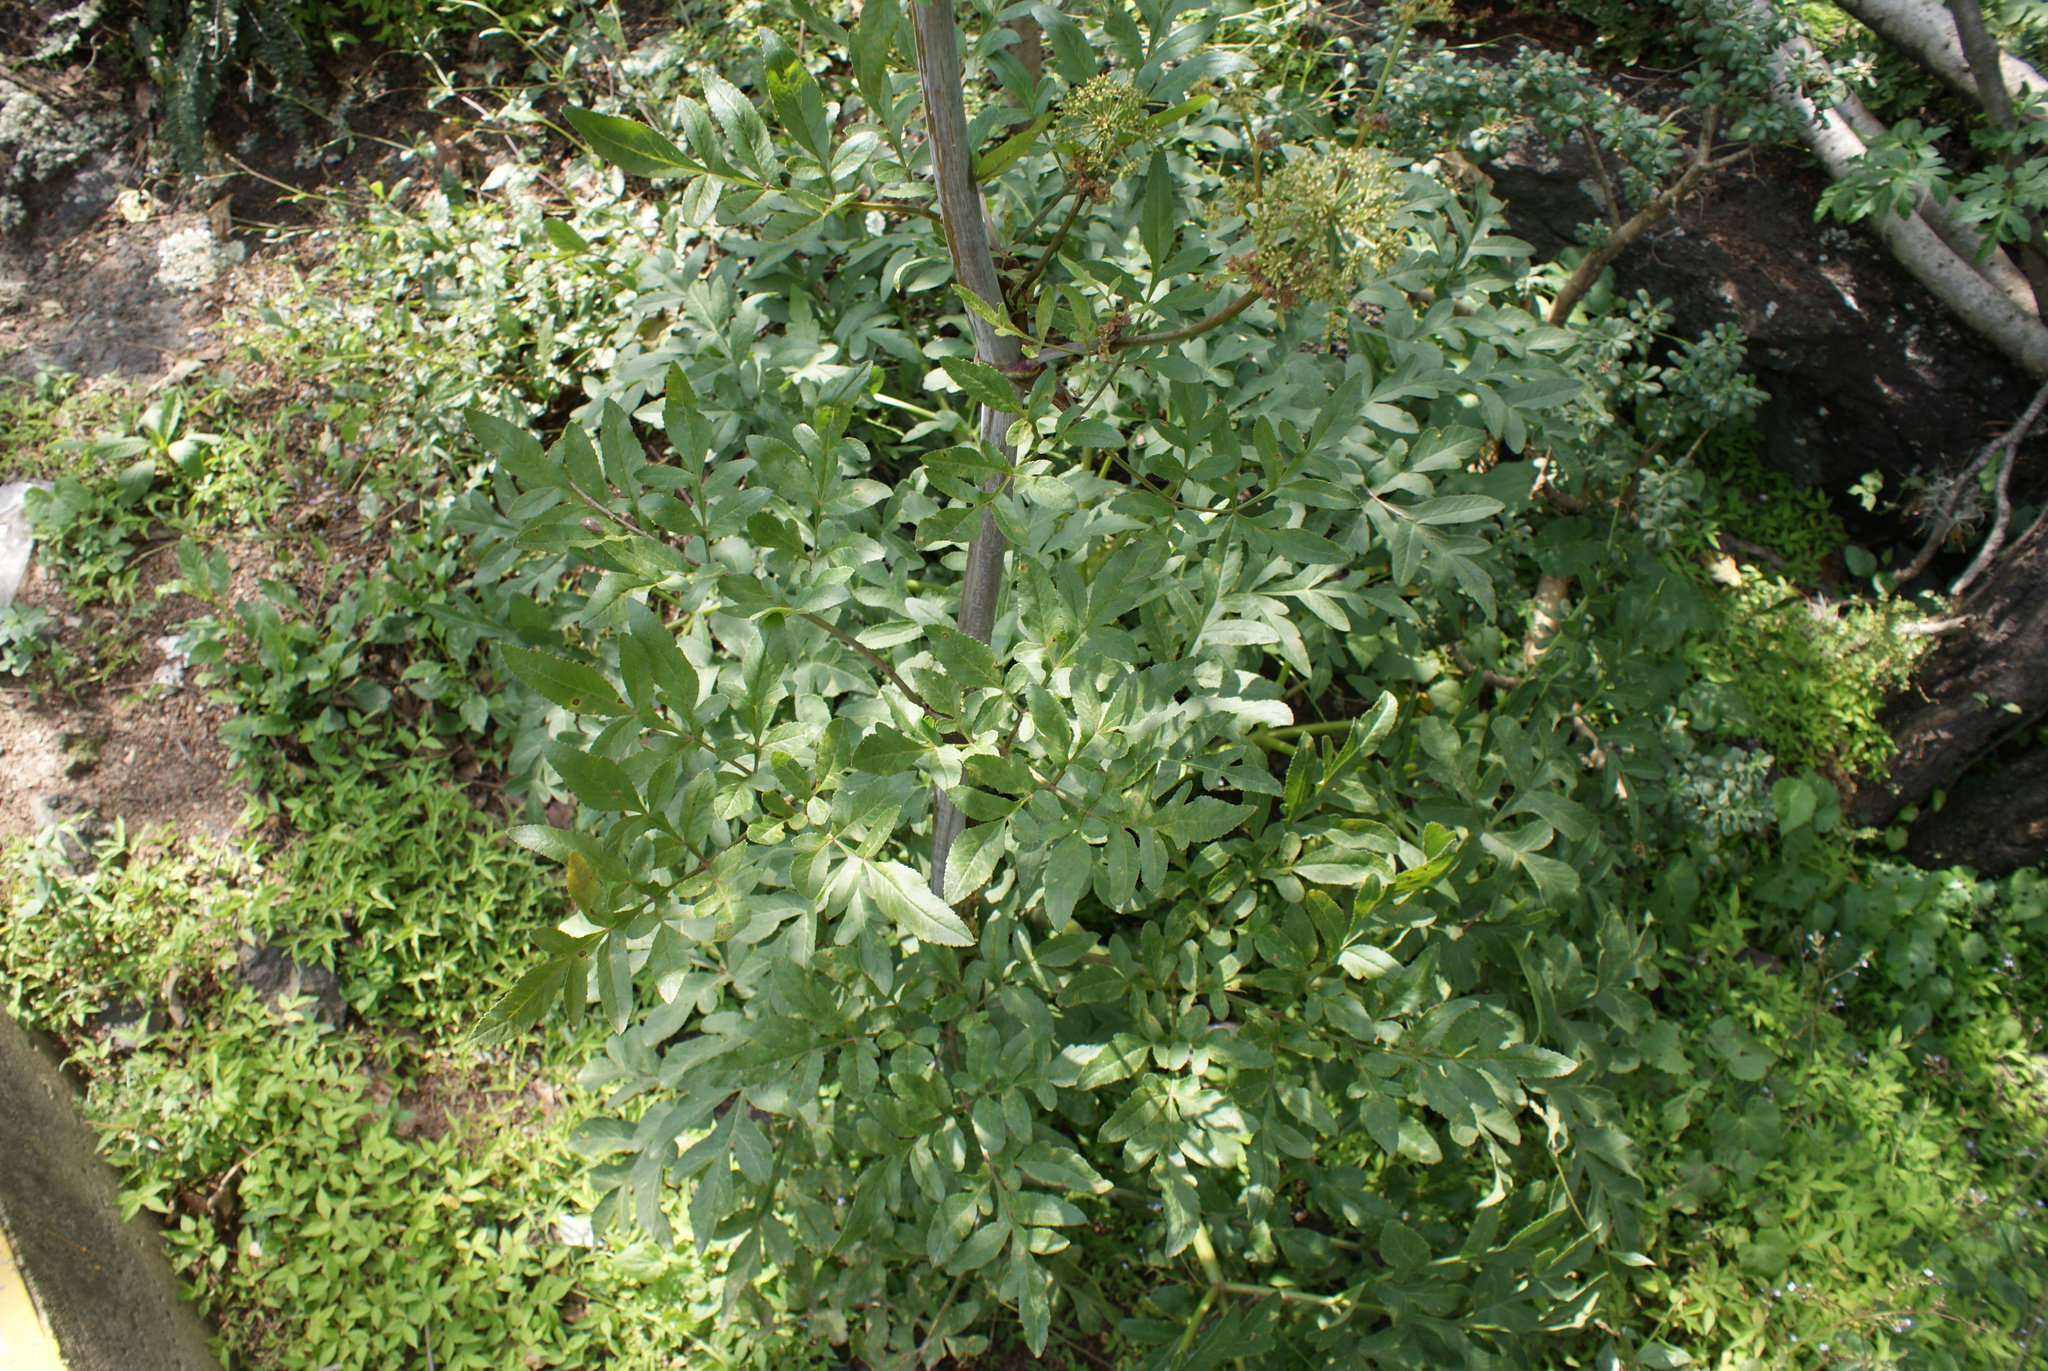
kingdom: Plantae
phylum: Tracheophyta
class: Magnoliopsida
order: Apiales
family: Apiaceae
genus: Prionosciadium
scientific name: Prionosciadium thapsoides
